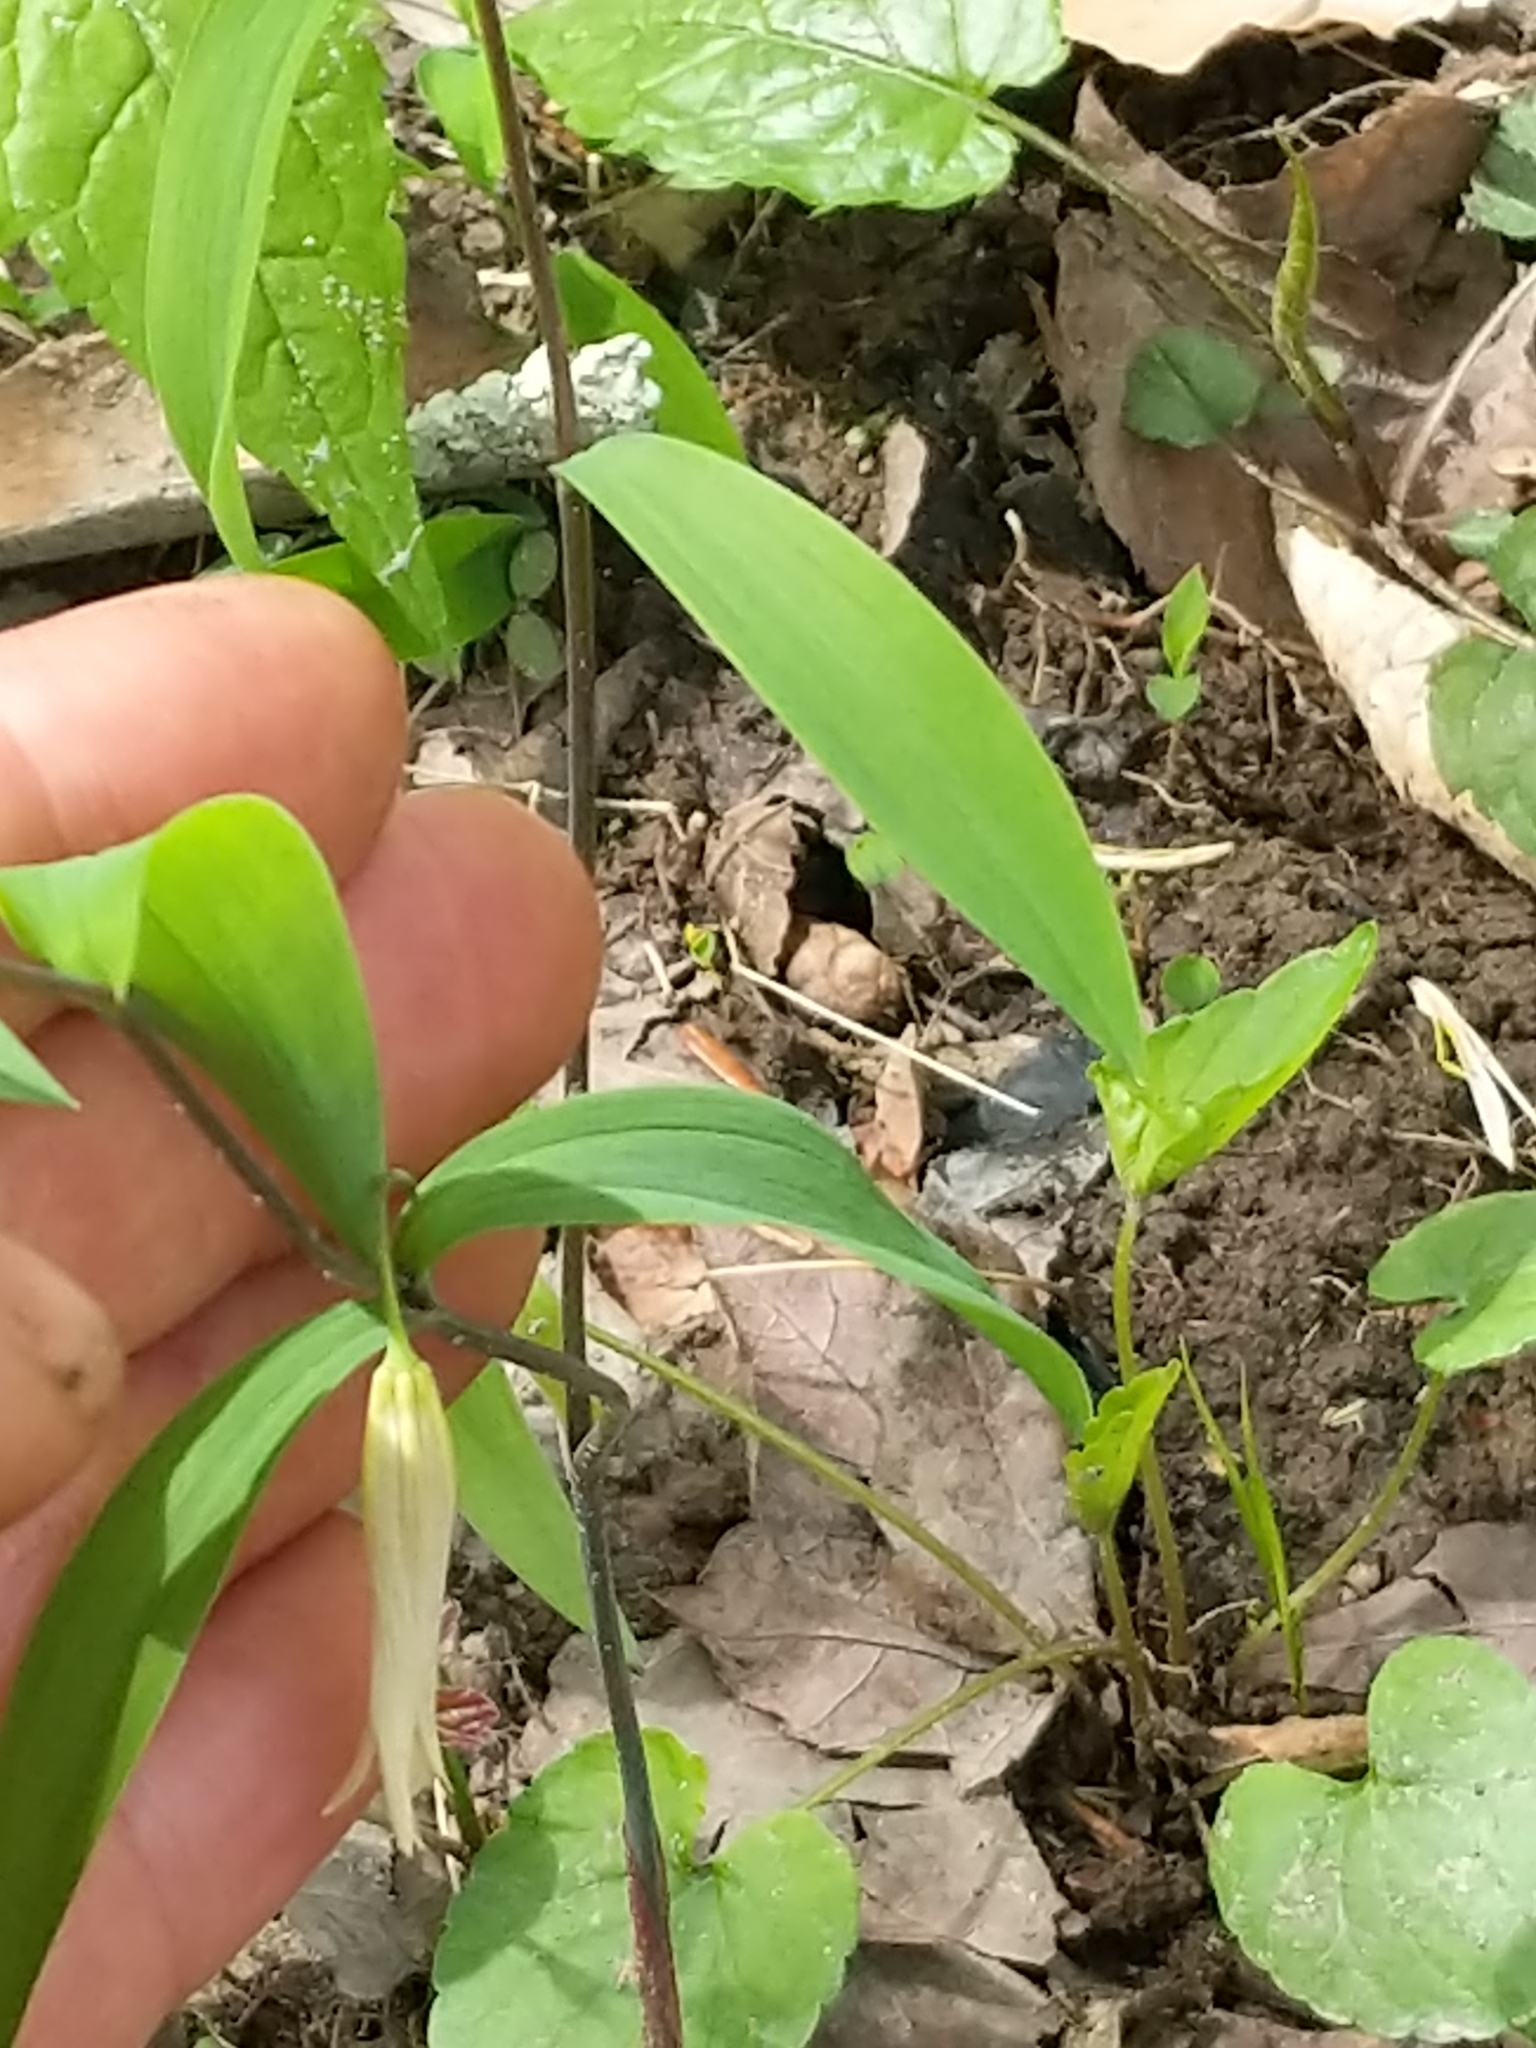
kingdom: Plantae
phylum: Tracheophyta
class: Liliopsida
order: Liliales
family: Colchicaceae
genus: Uvularia
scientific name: Uvularia sessilifolia
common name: Straw-lily
